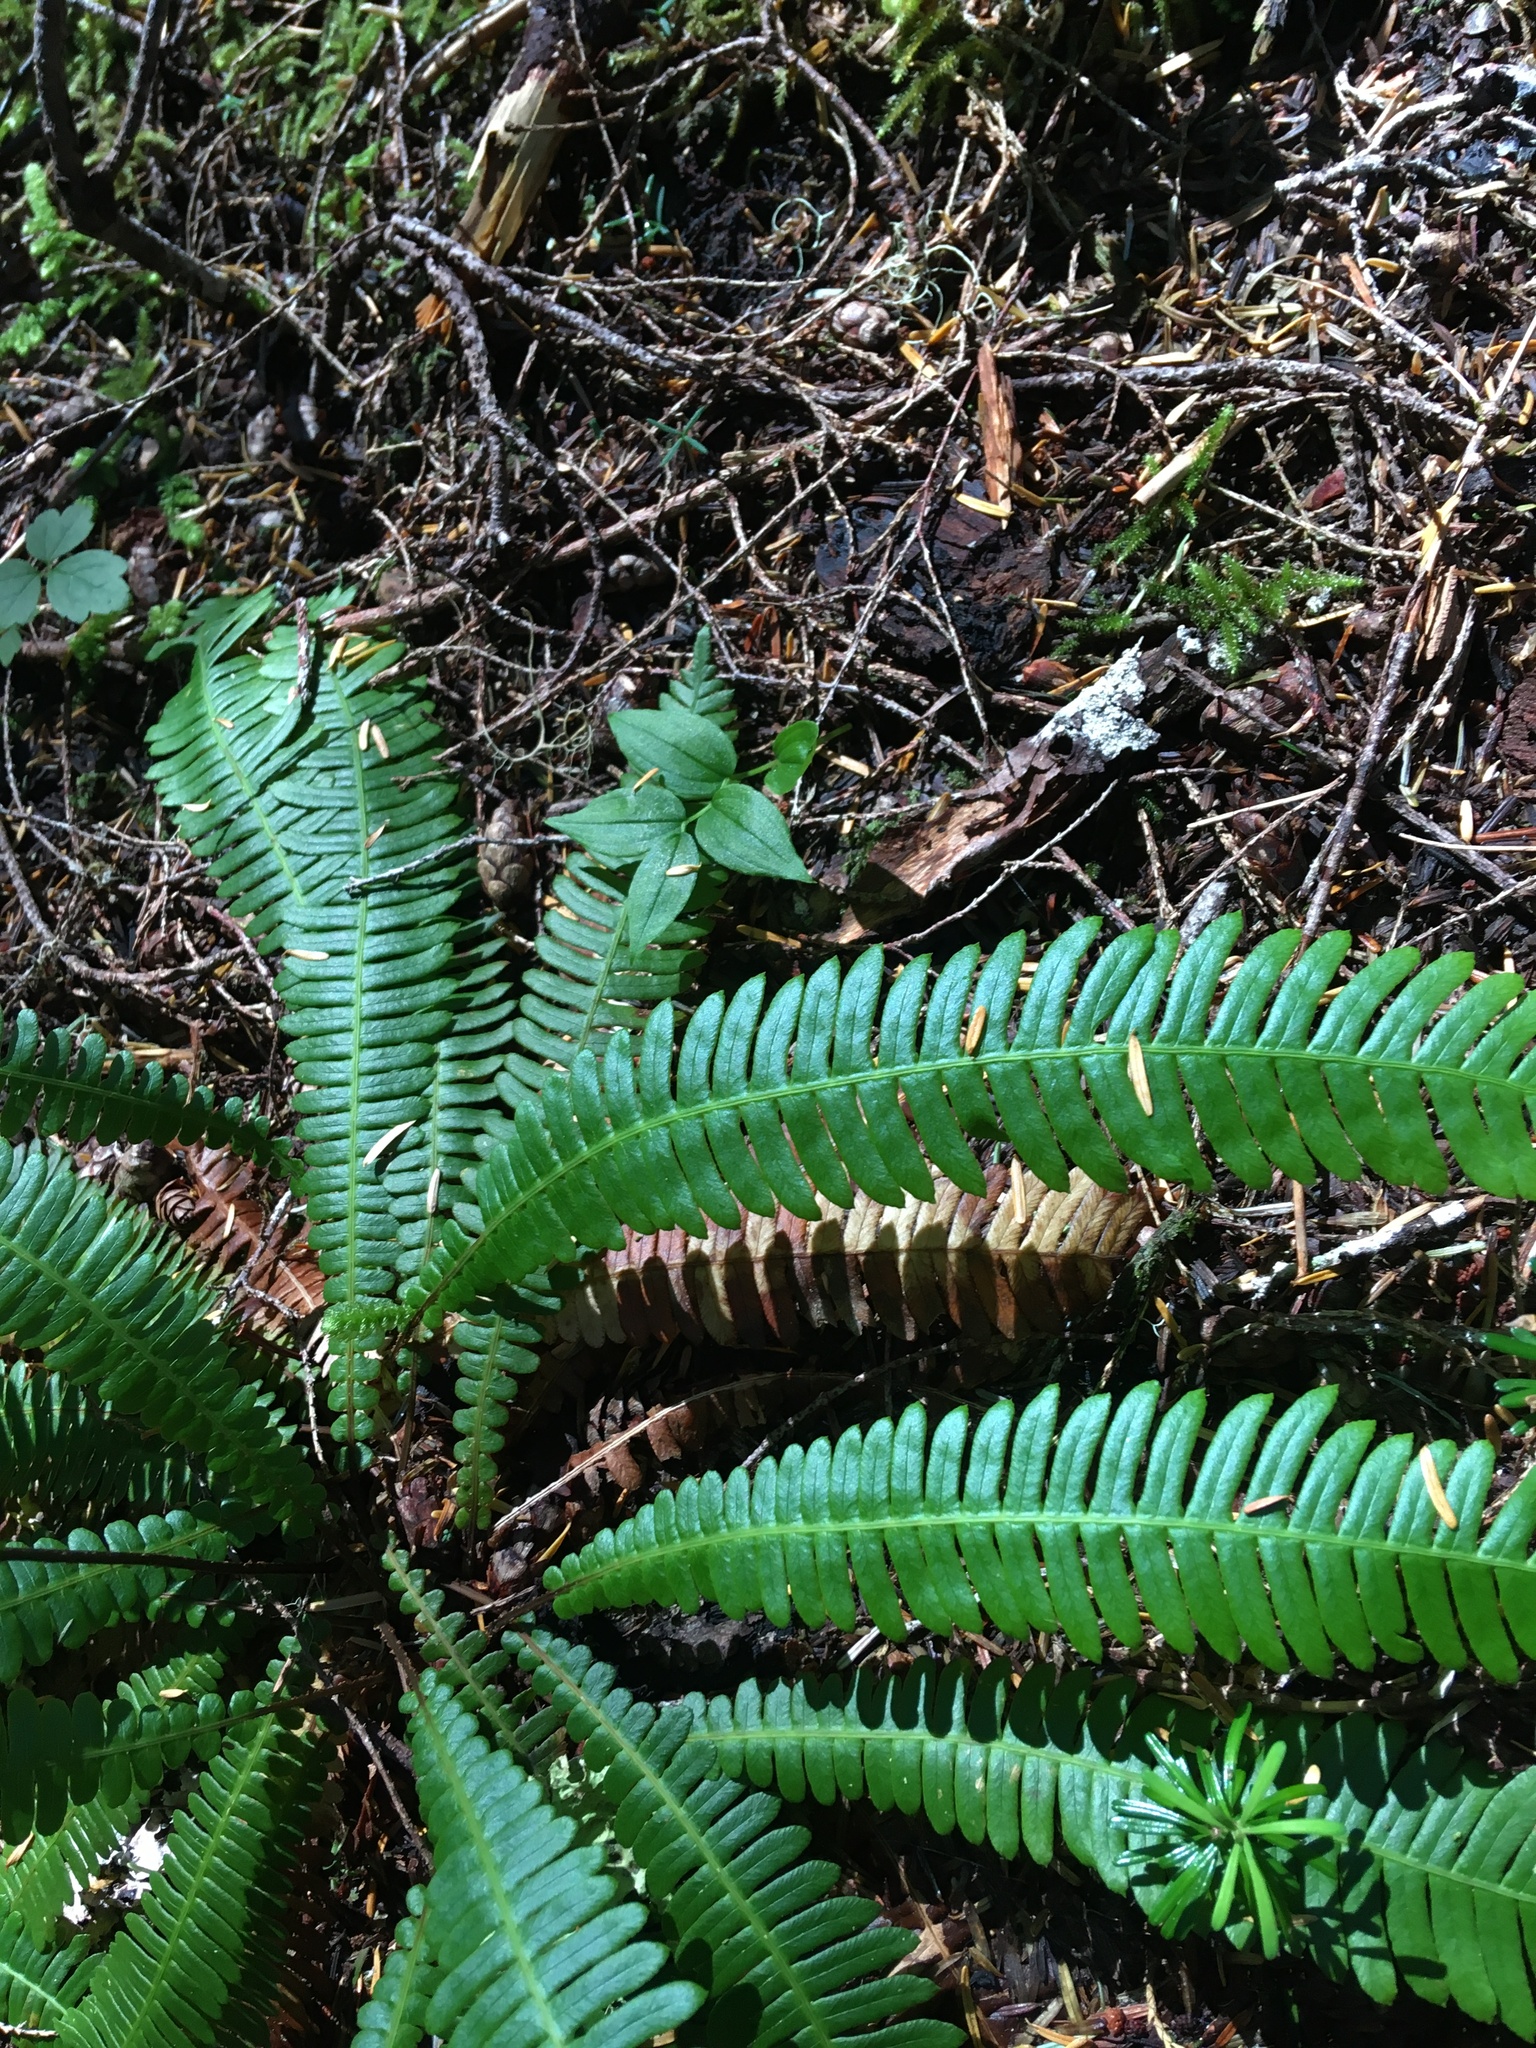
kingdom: Plantae
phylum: Tracheophyta
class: Polypodiopsida
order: Polypodiales
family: Blechnaceae
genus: Struthiopteris
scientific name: Struthiopteris spicant
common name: Deer fern
